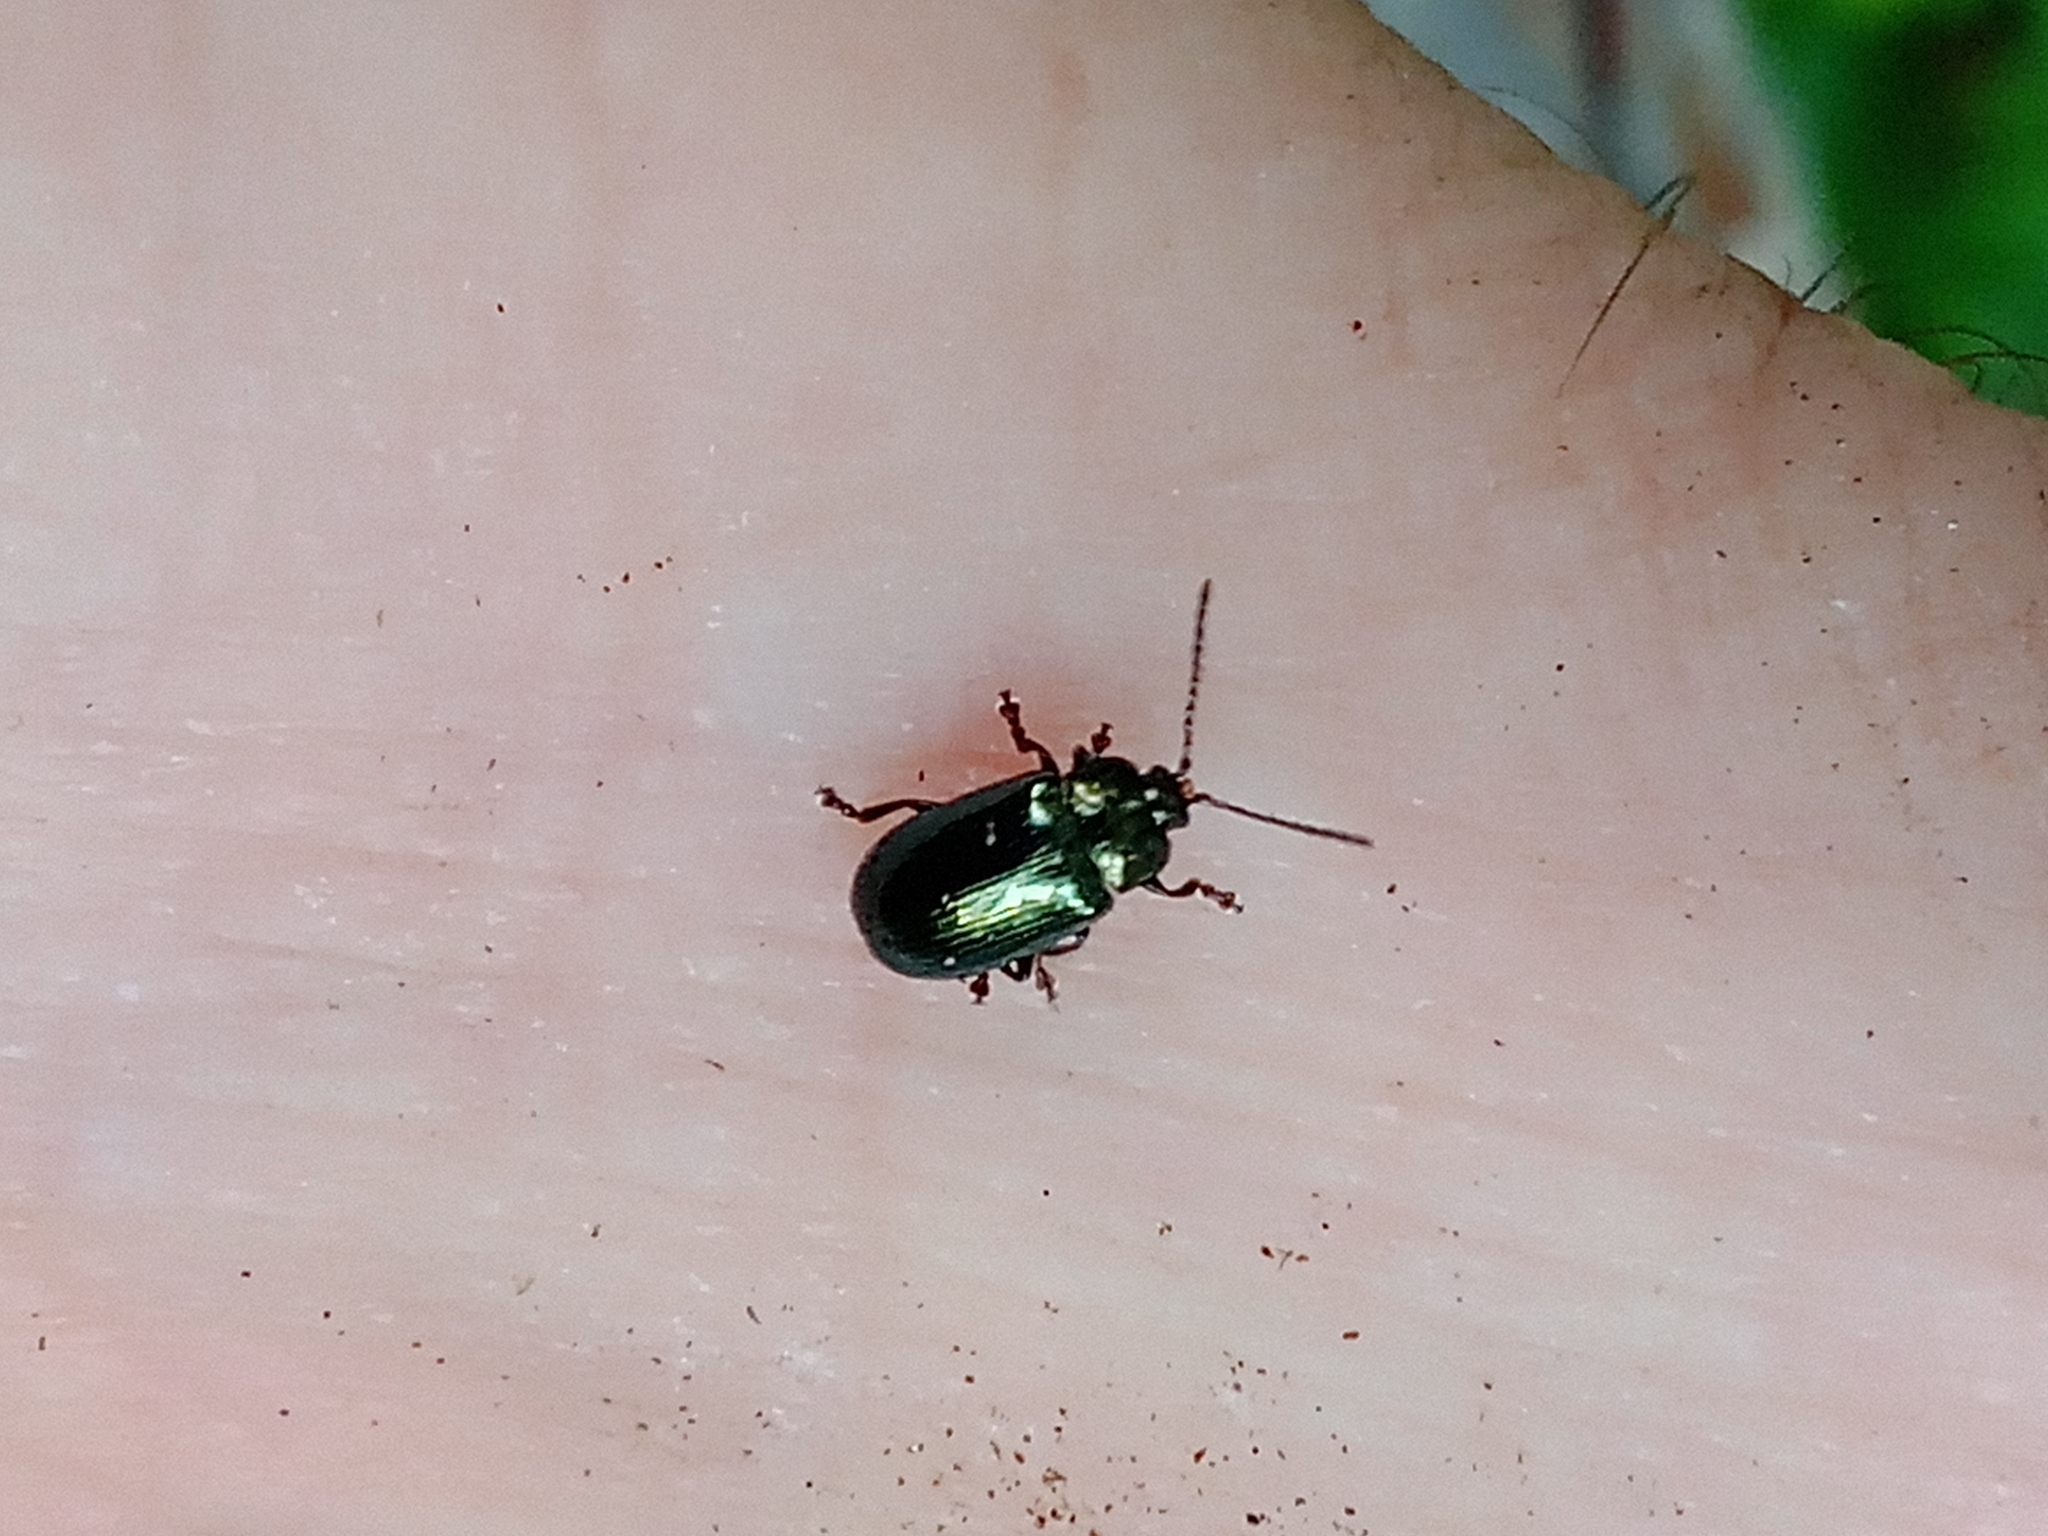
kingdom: Animalia
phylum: Arthropoda
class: Insecta
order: Coleoptera
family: Chrysomelidae
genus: Phratora
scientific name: Phratora laticollis
